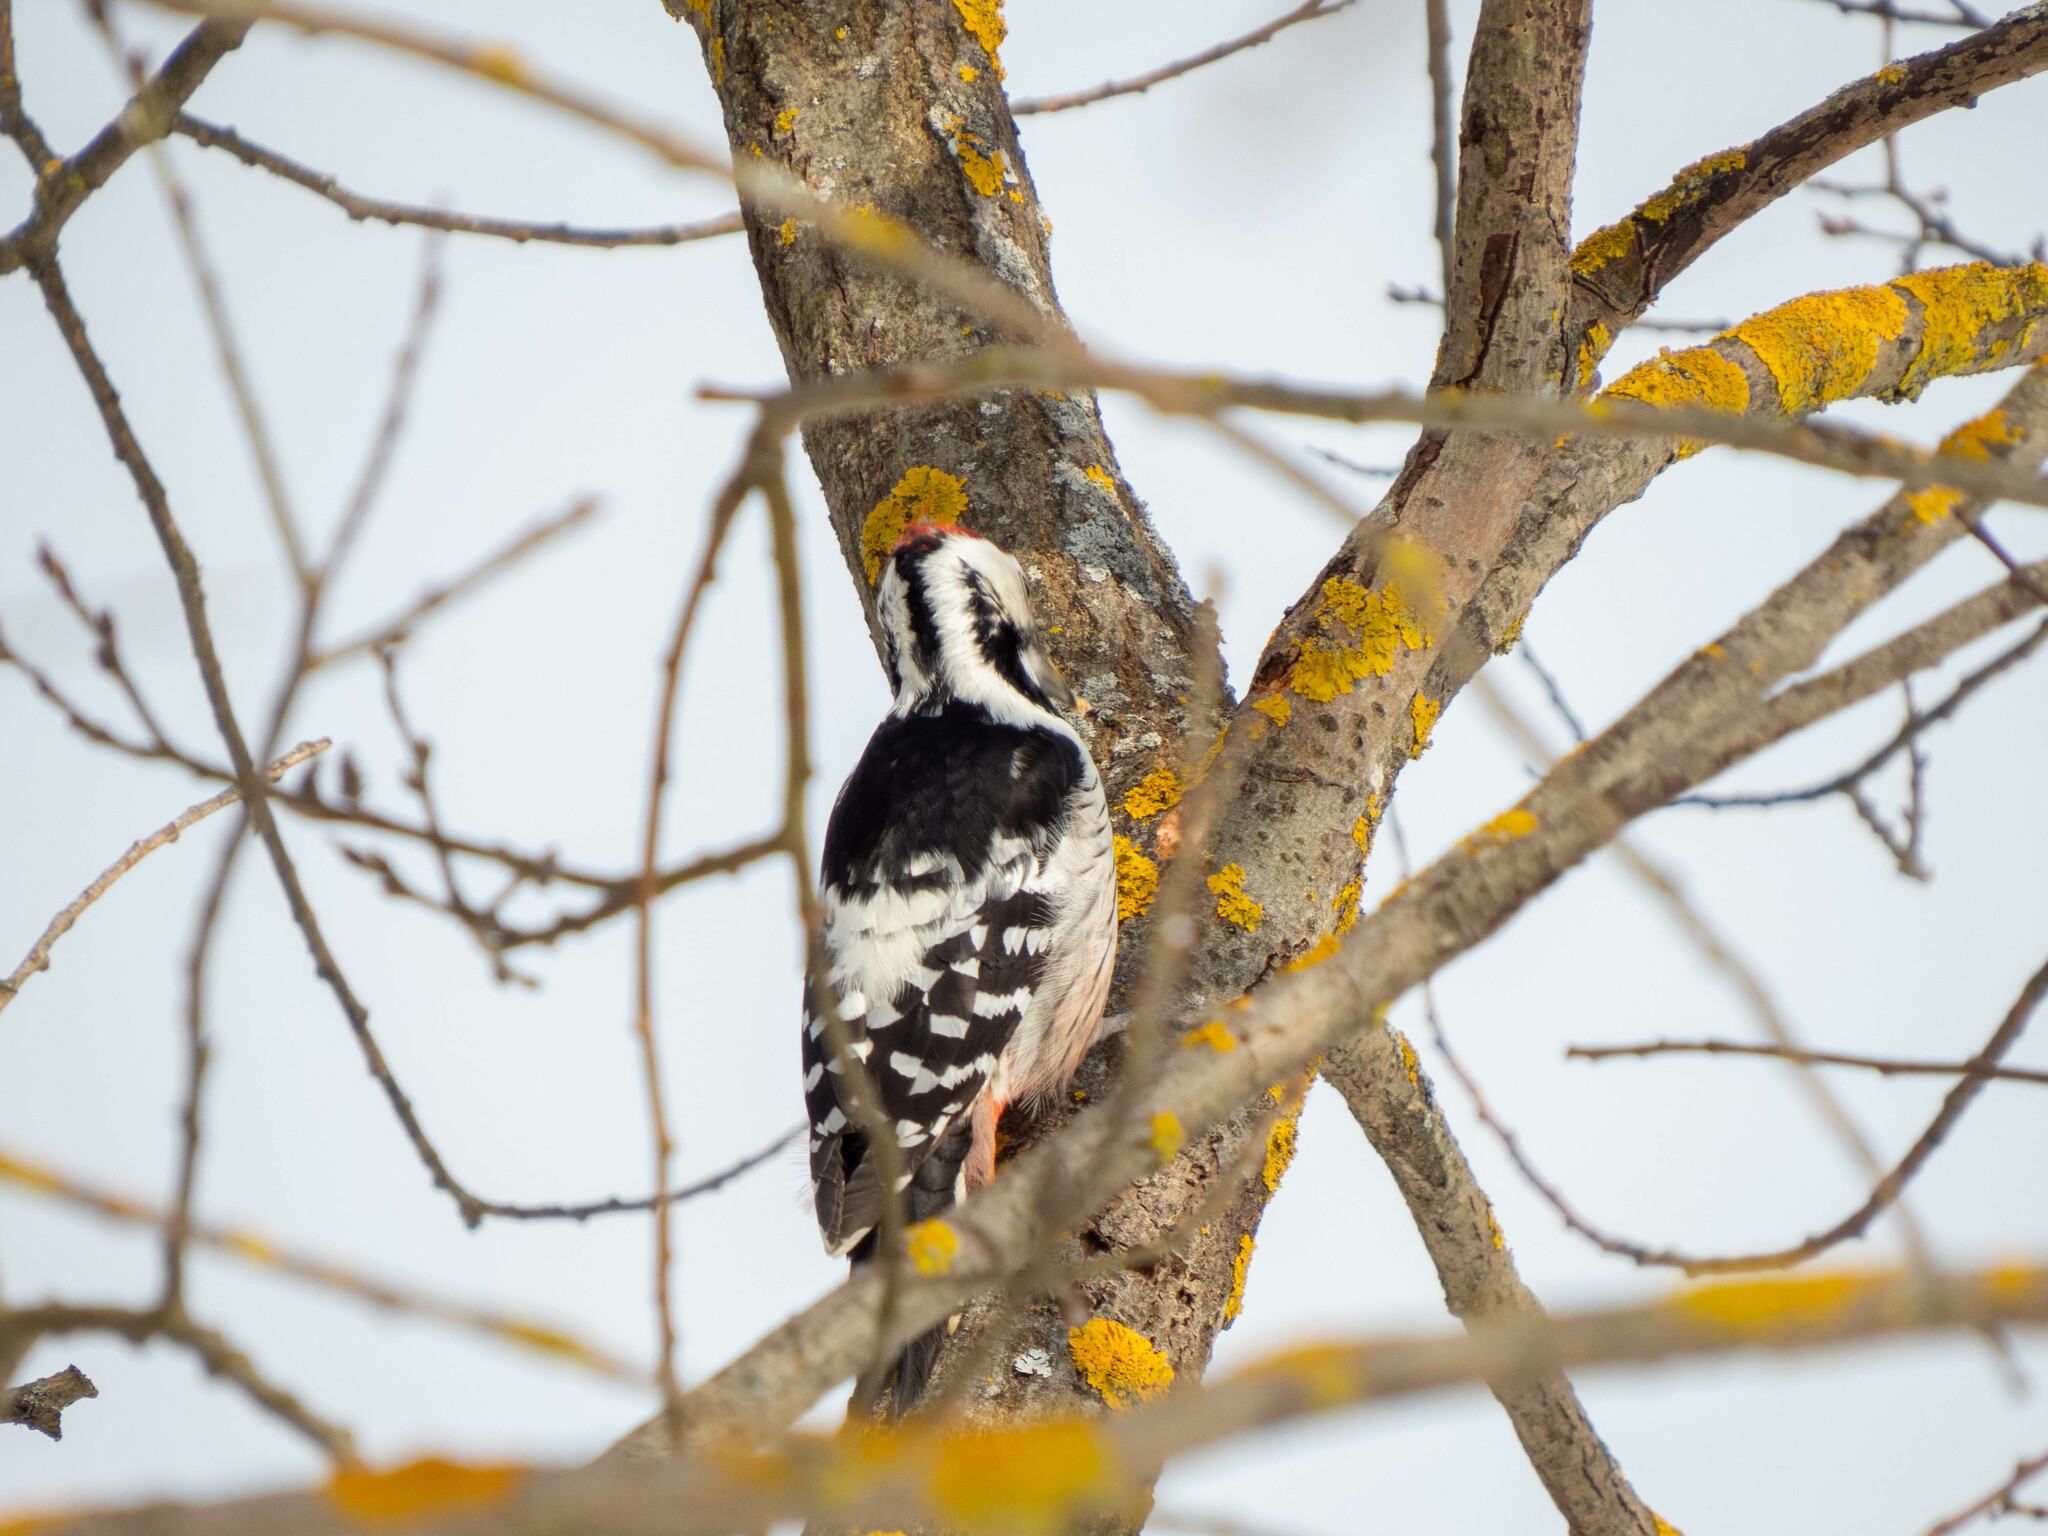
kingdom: Animalia
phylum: Chordata
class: Aves
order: Piciformes
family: Picidae
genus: Dendrocopos
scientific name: Dendrocopos leucotos
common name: White-backed woodpecker
